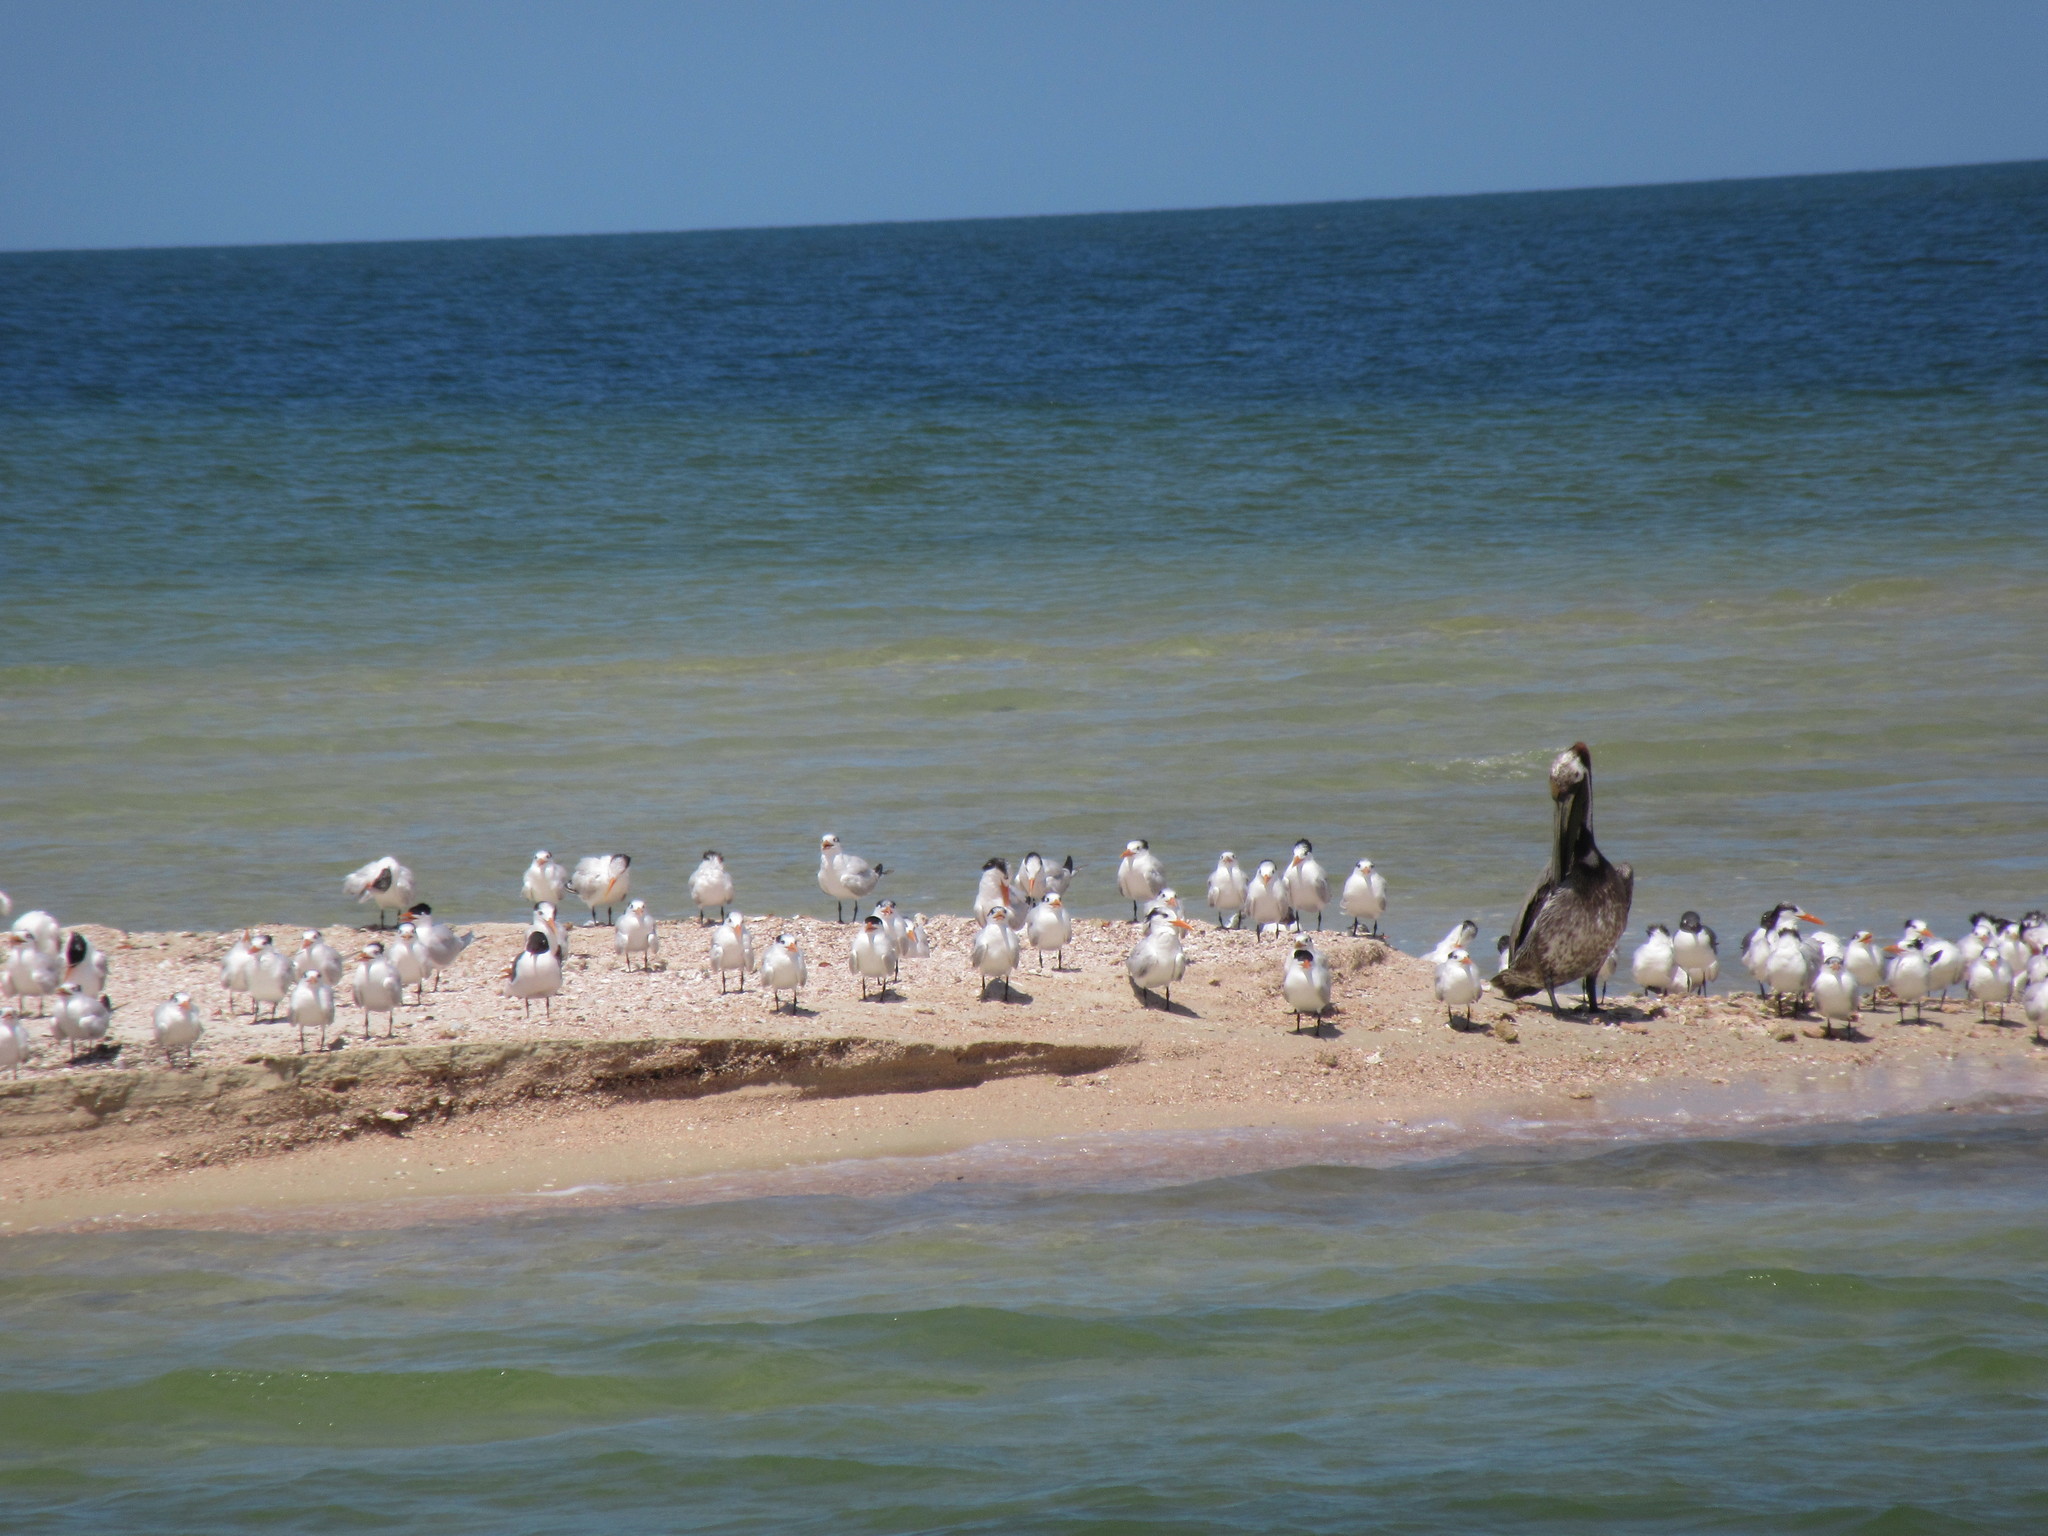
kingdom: Animalia
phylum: Chordata
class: Aves
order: Charadriiformes
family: Laridae
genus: Thalasseus
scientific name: Thalasseus maximus
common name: Royal tern
